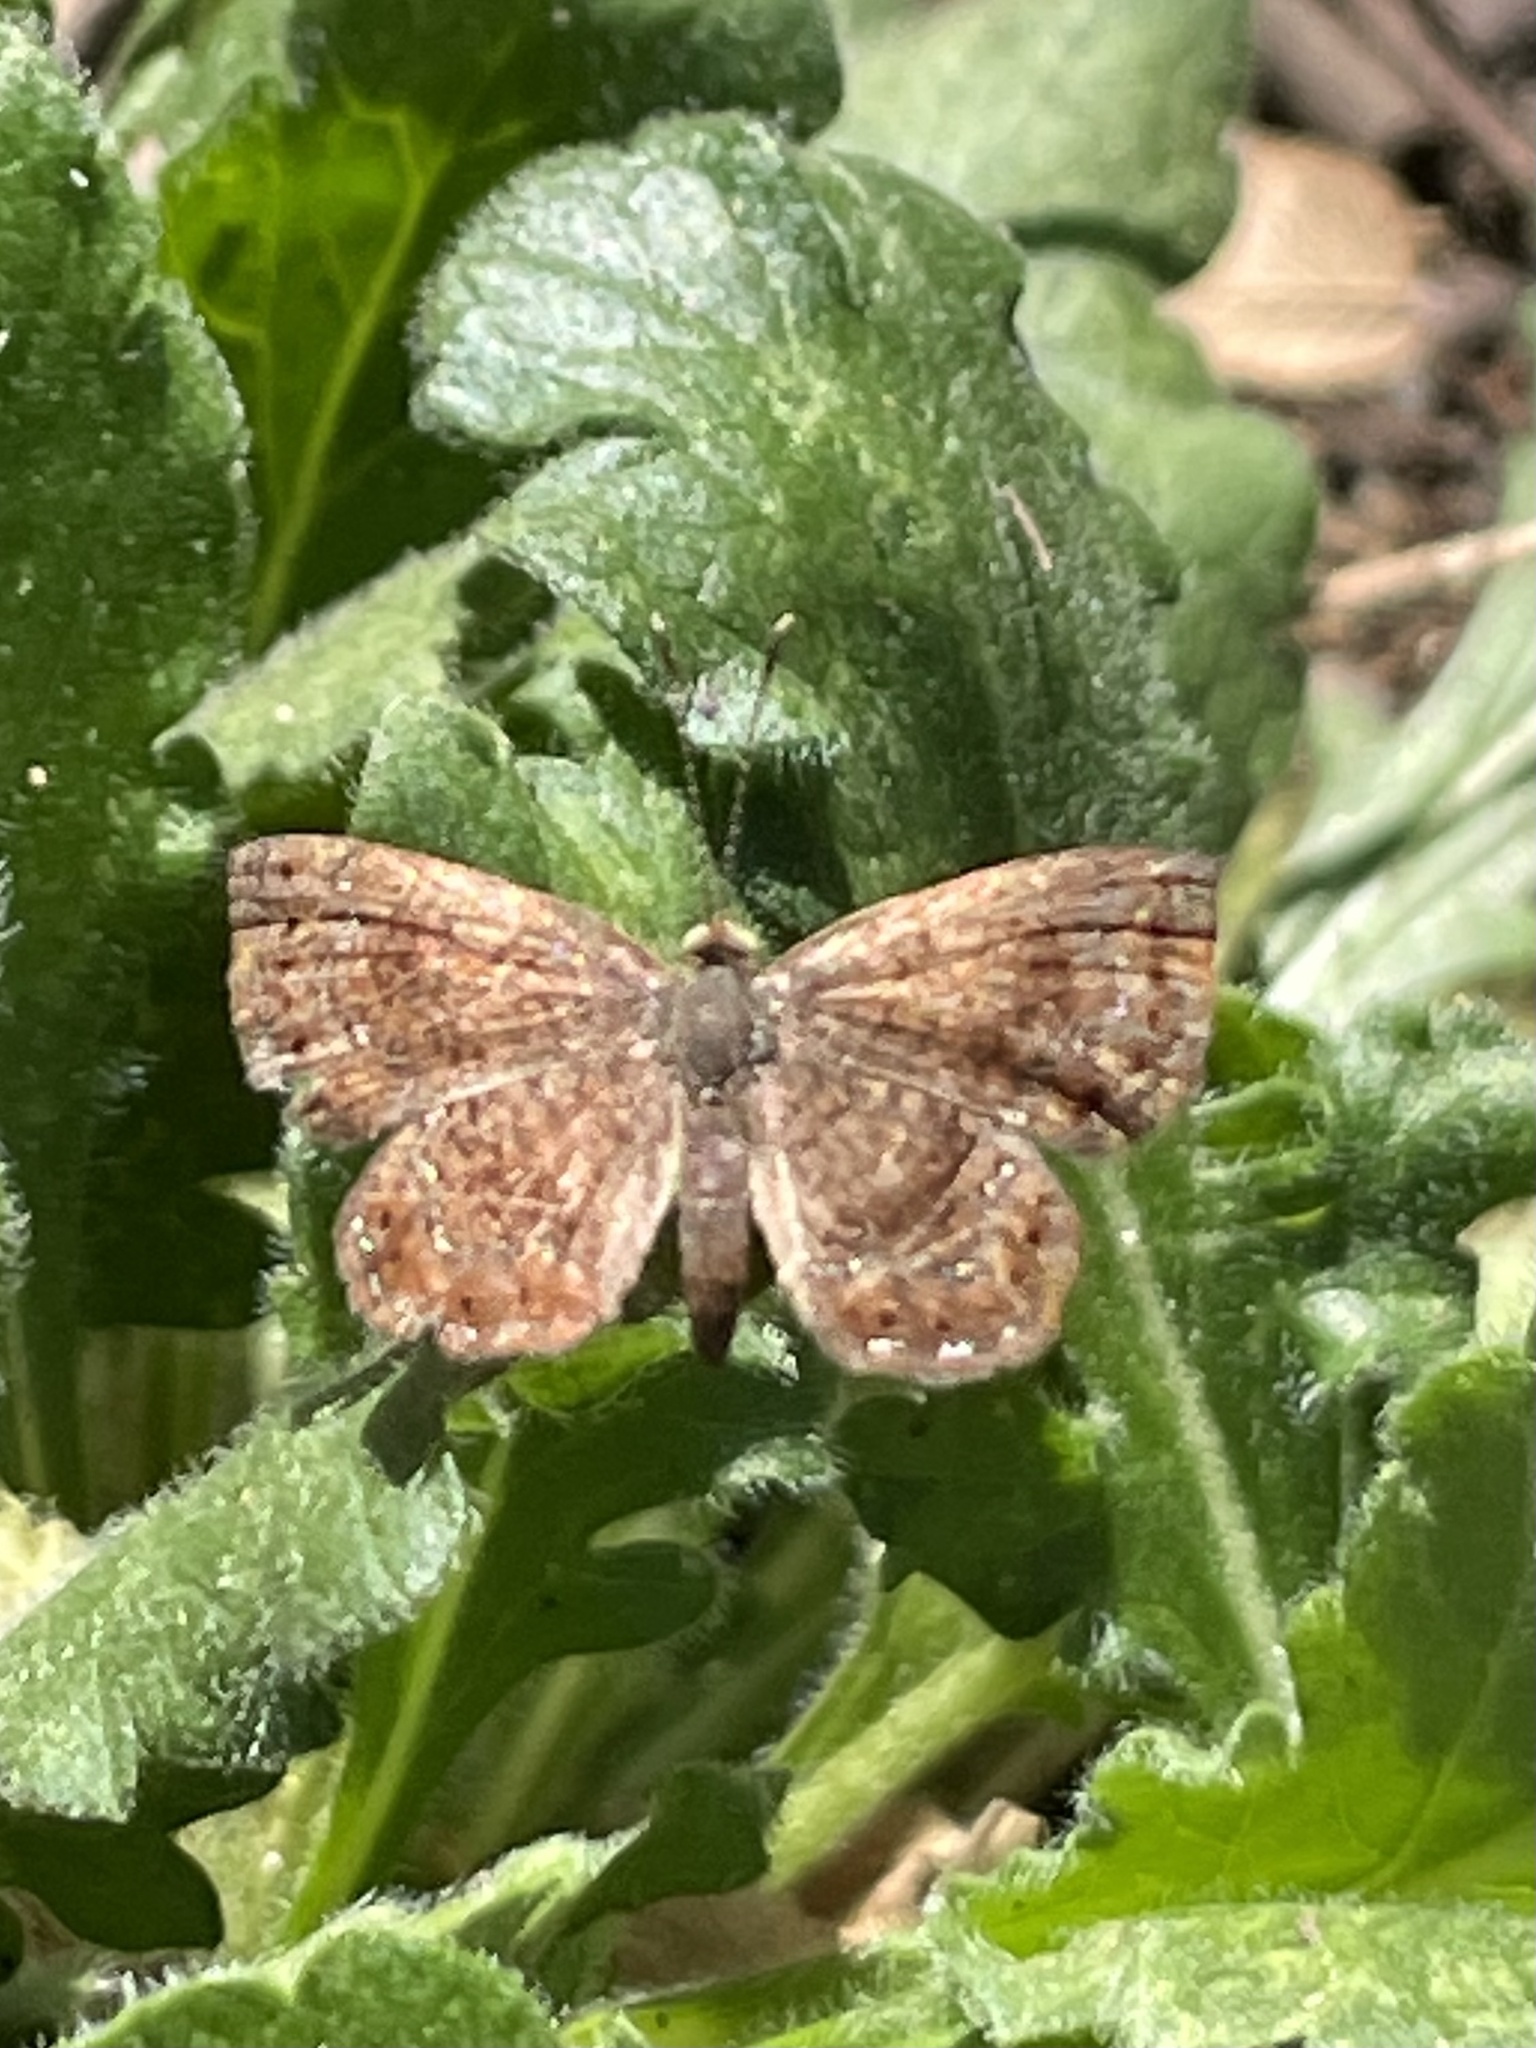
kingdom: Animalia
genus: Calephelis
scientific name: Calephelis perditalis
